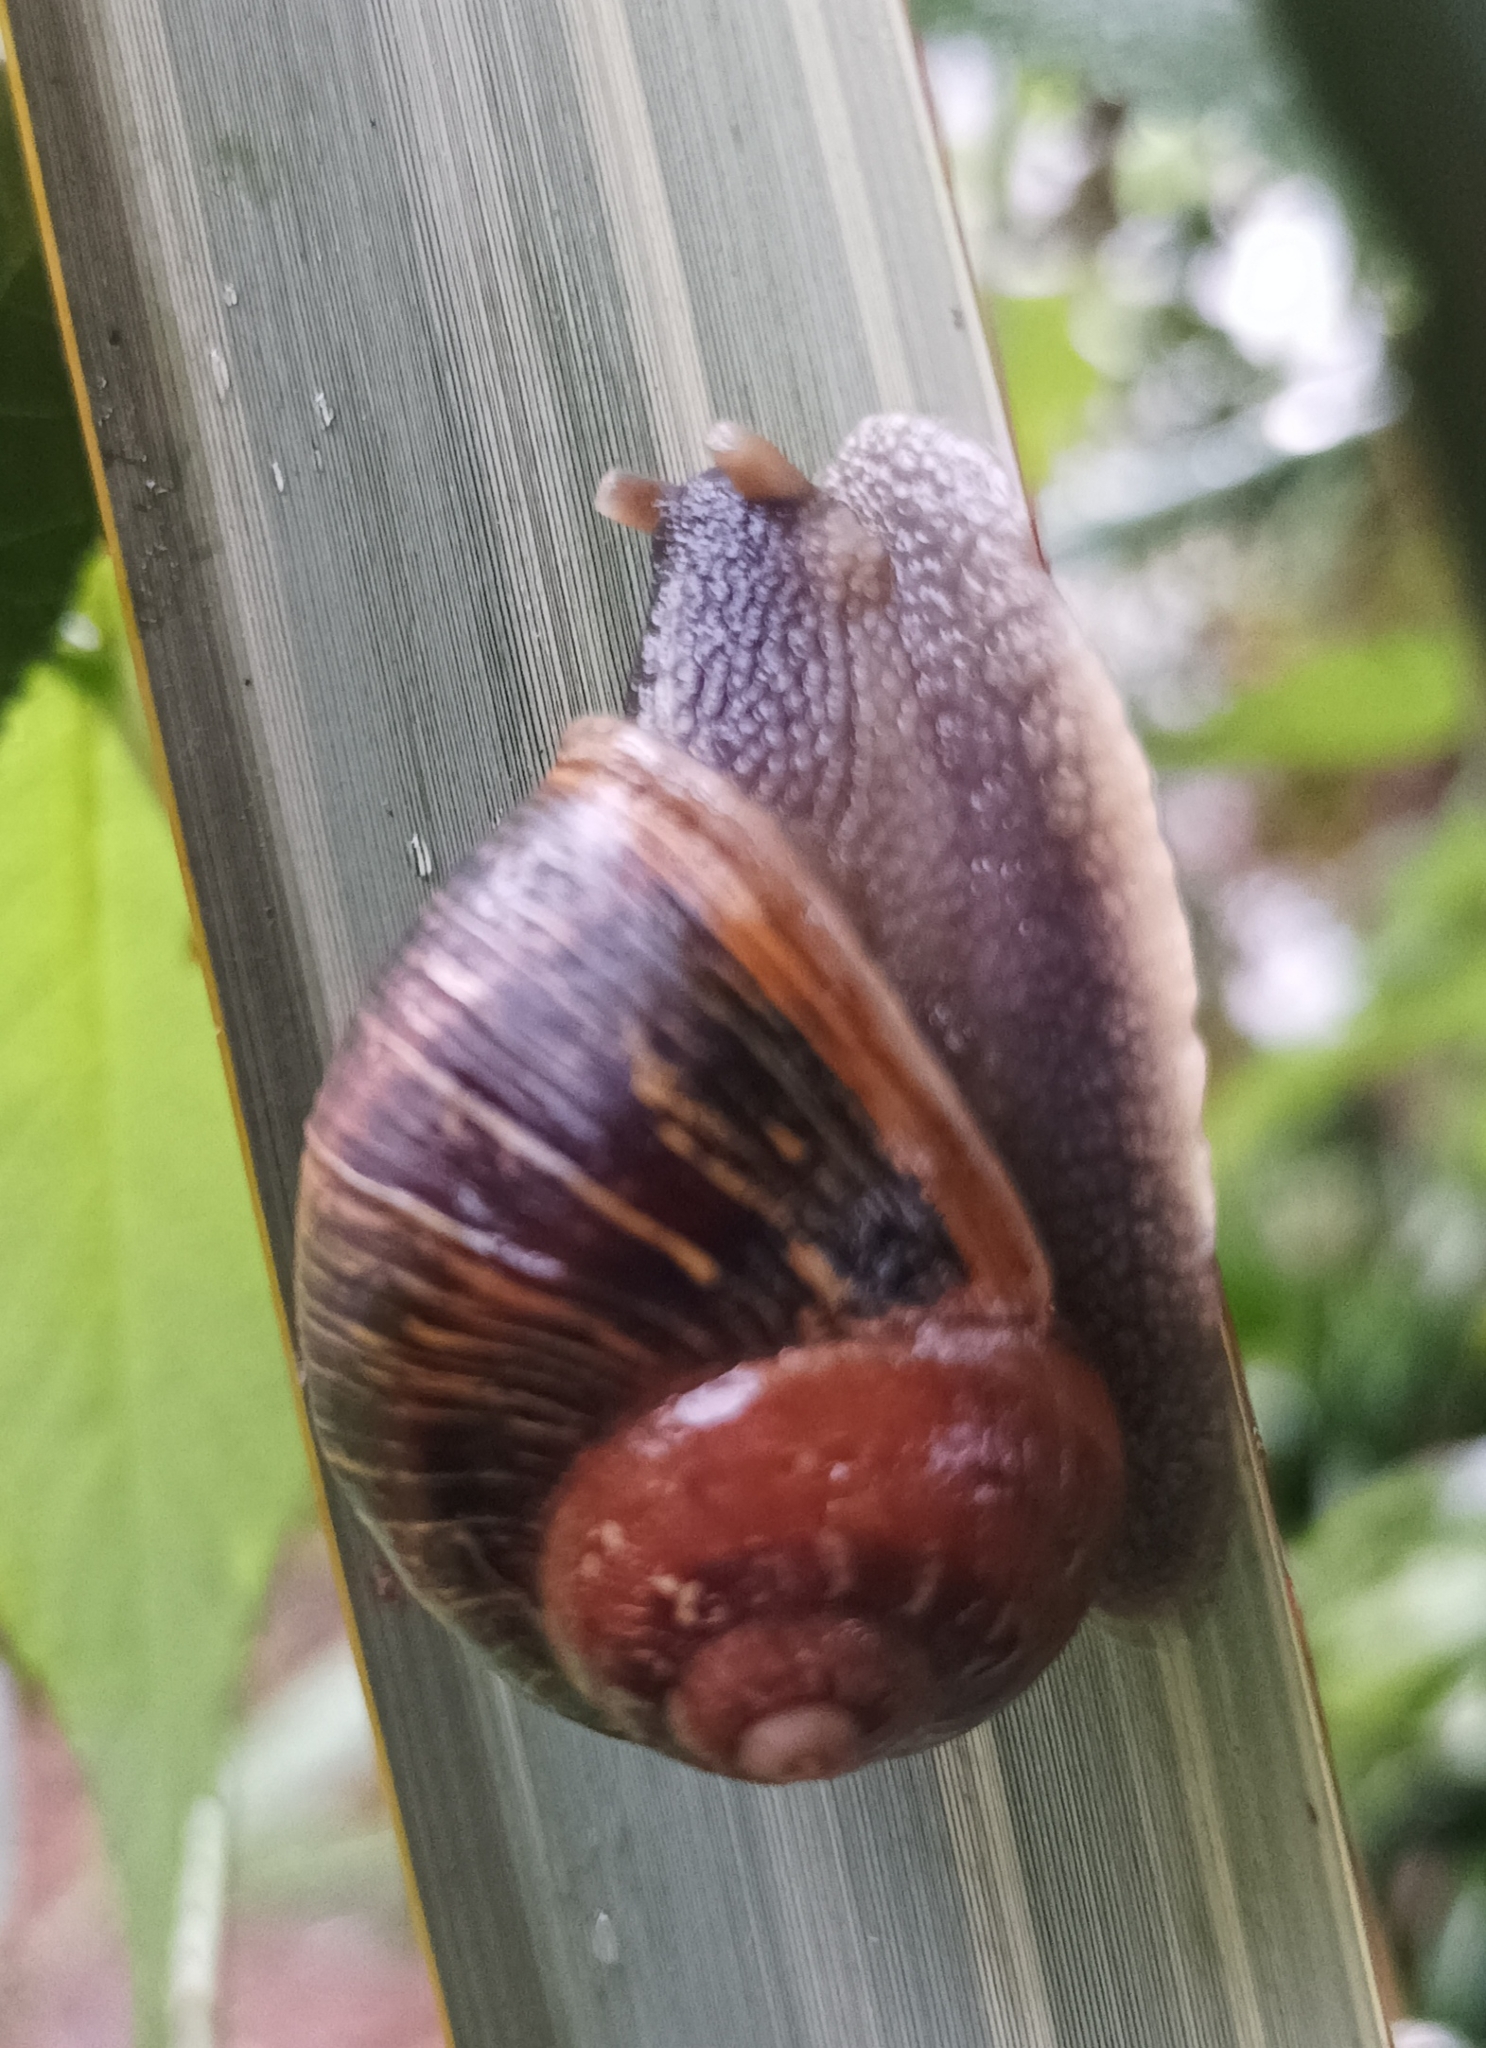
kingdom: Animalia
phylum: Mollusca
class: Gastropoda
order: Stylommatophora
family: Helicidae
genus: Cornu
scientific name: Cornu aspersum
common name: Brown garden snail
